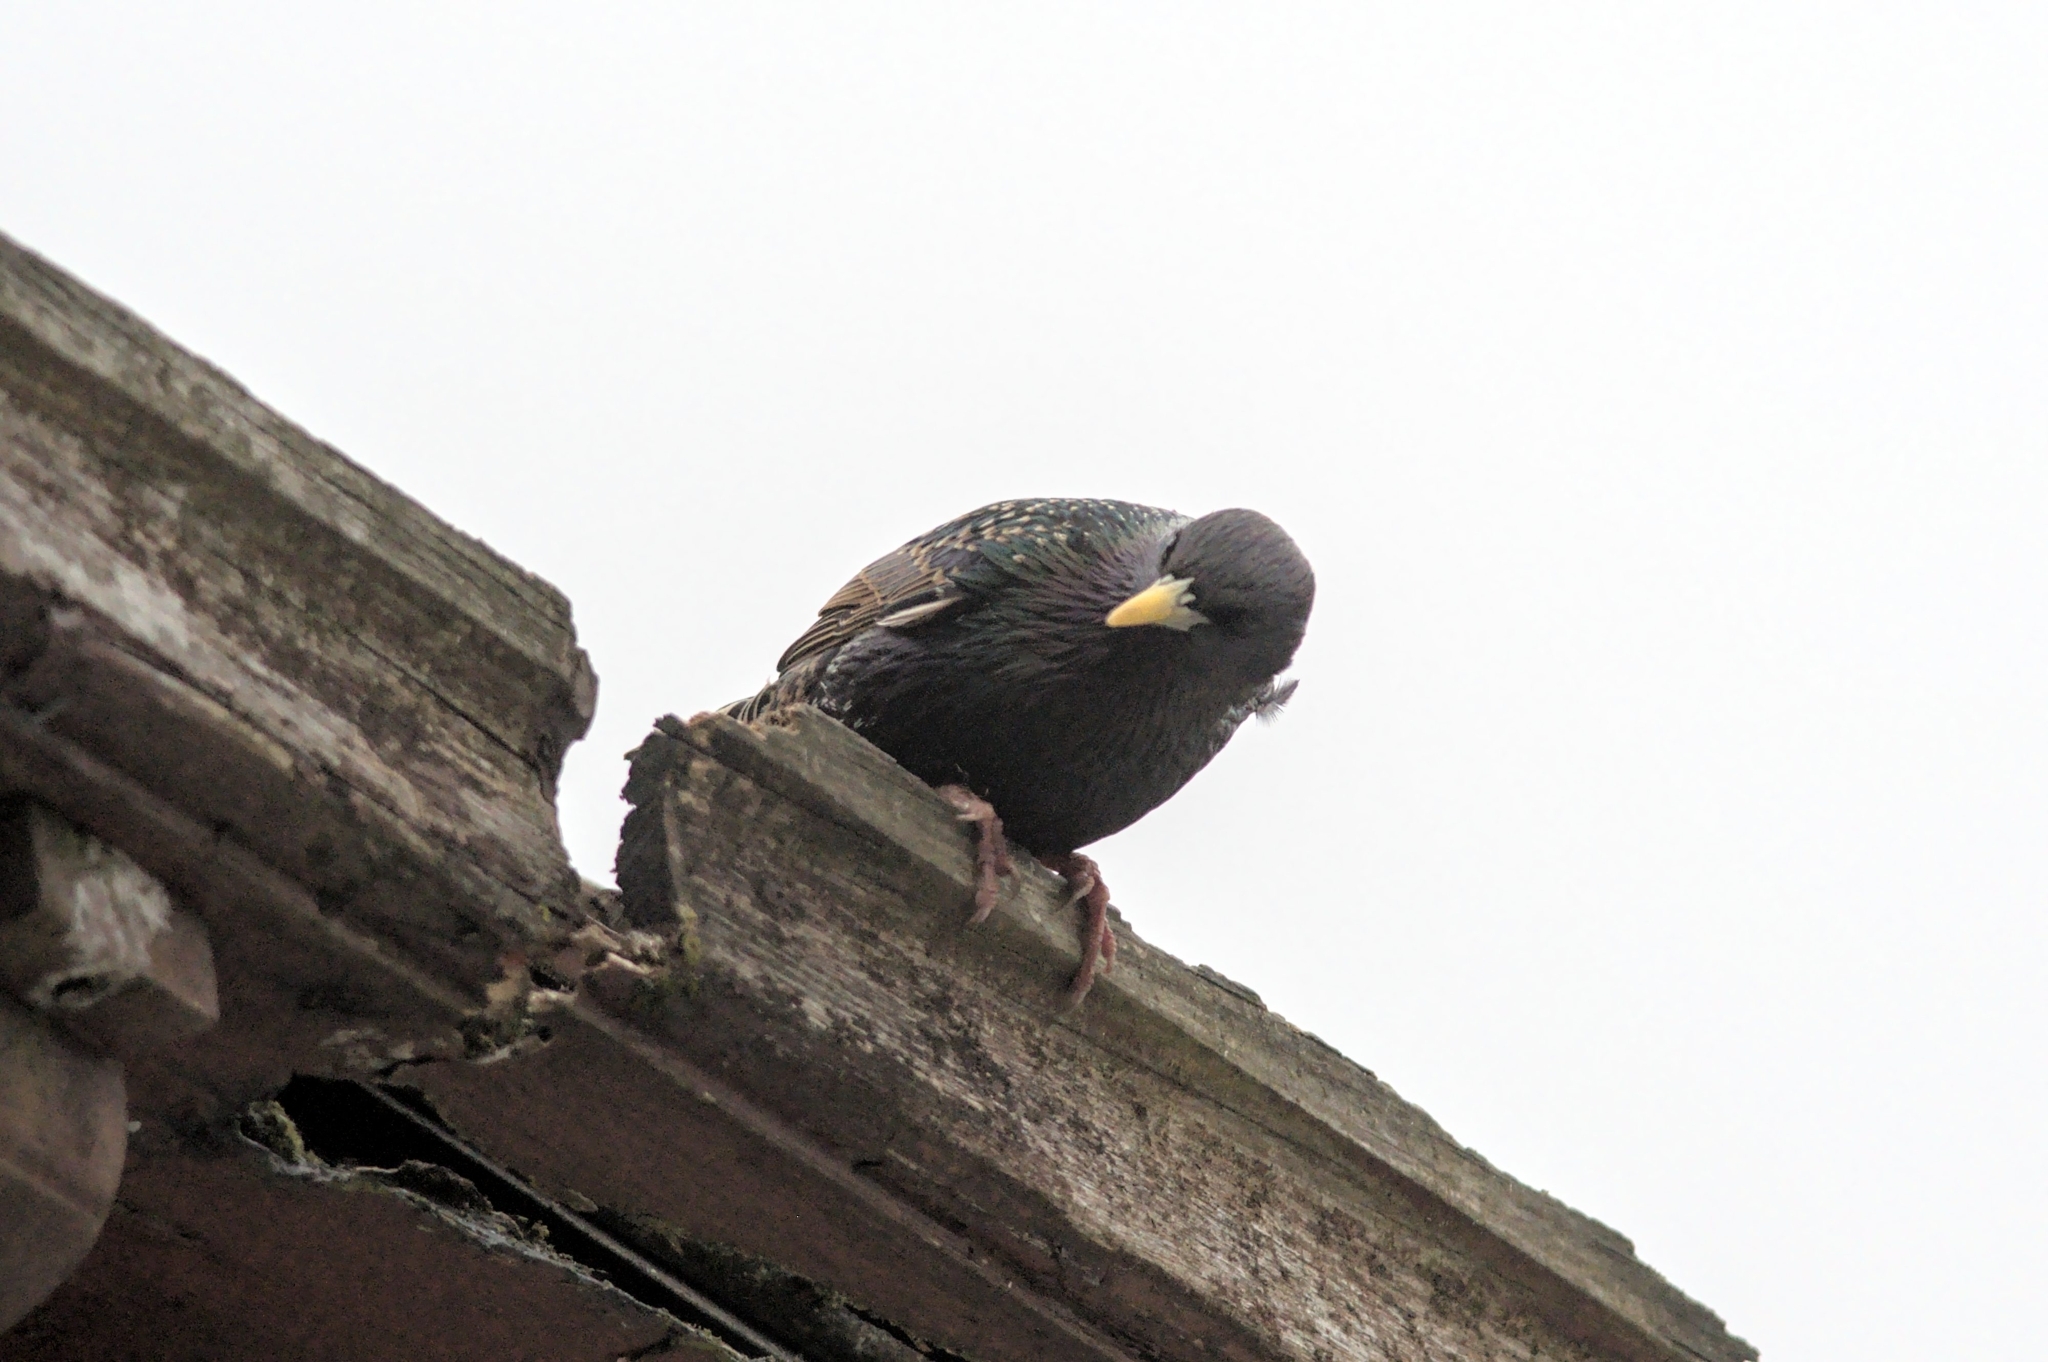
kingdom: Animalia
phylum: Chordata
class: Aves
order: Passeriformes
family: Sturnidae
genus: Sturnus
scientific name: Sturnus vulgaris
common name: Common starling
